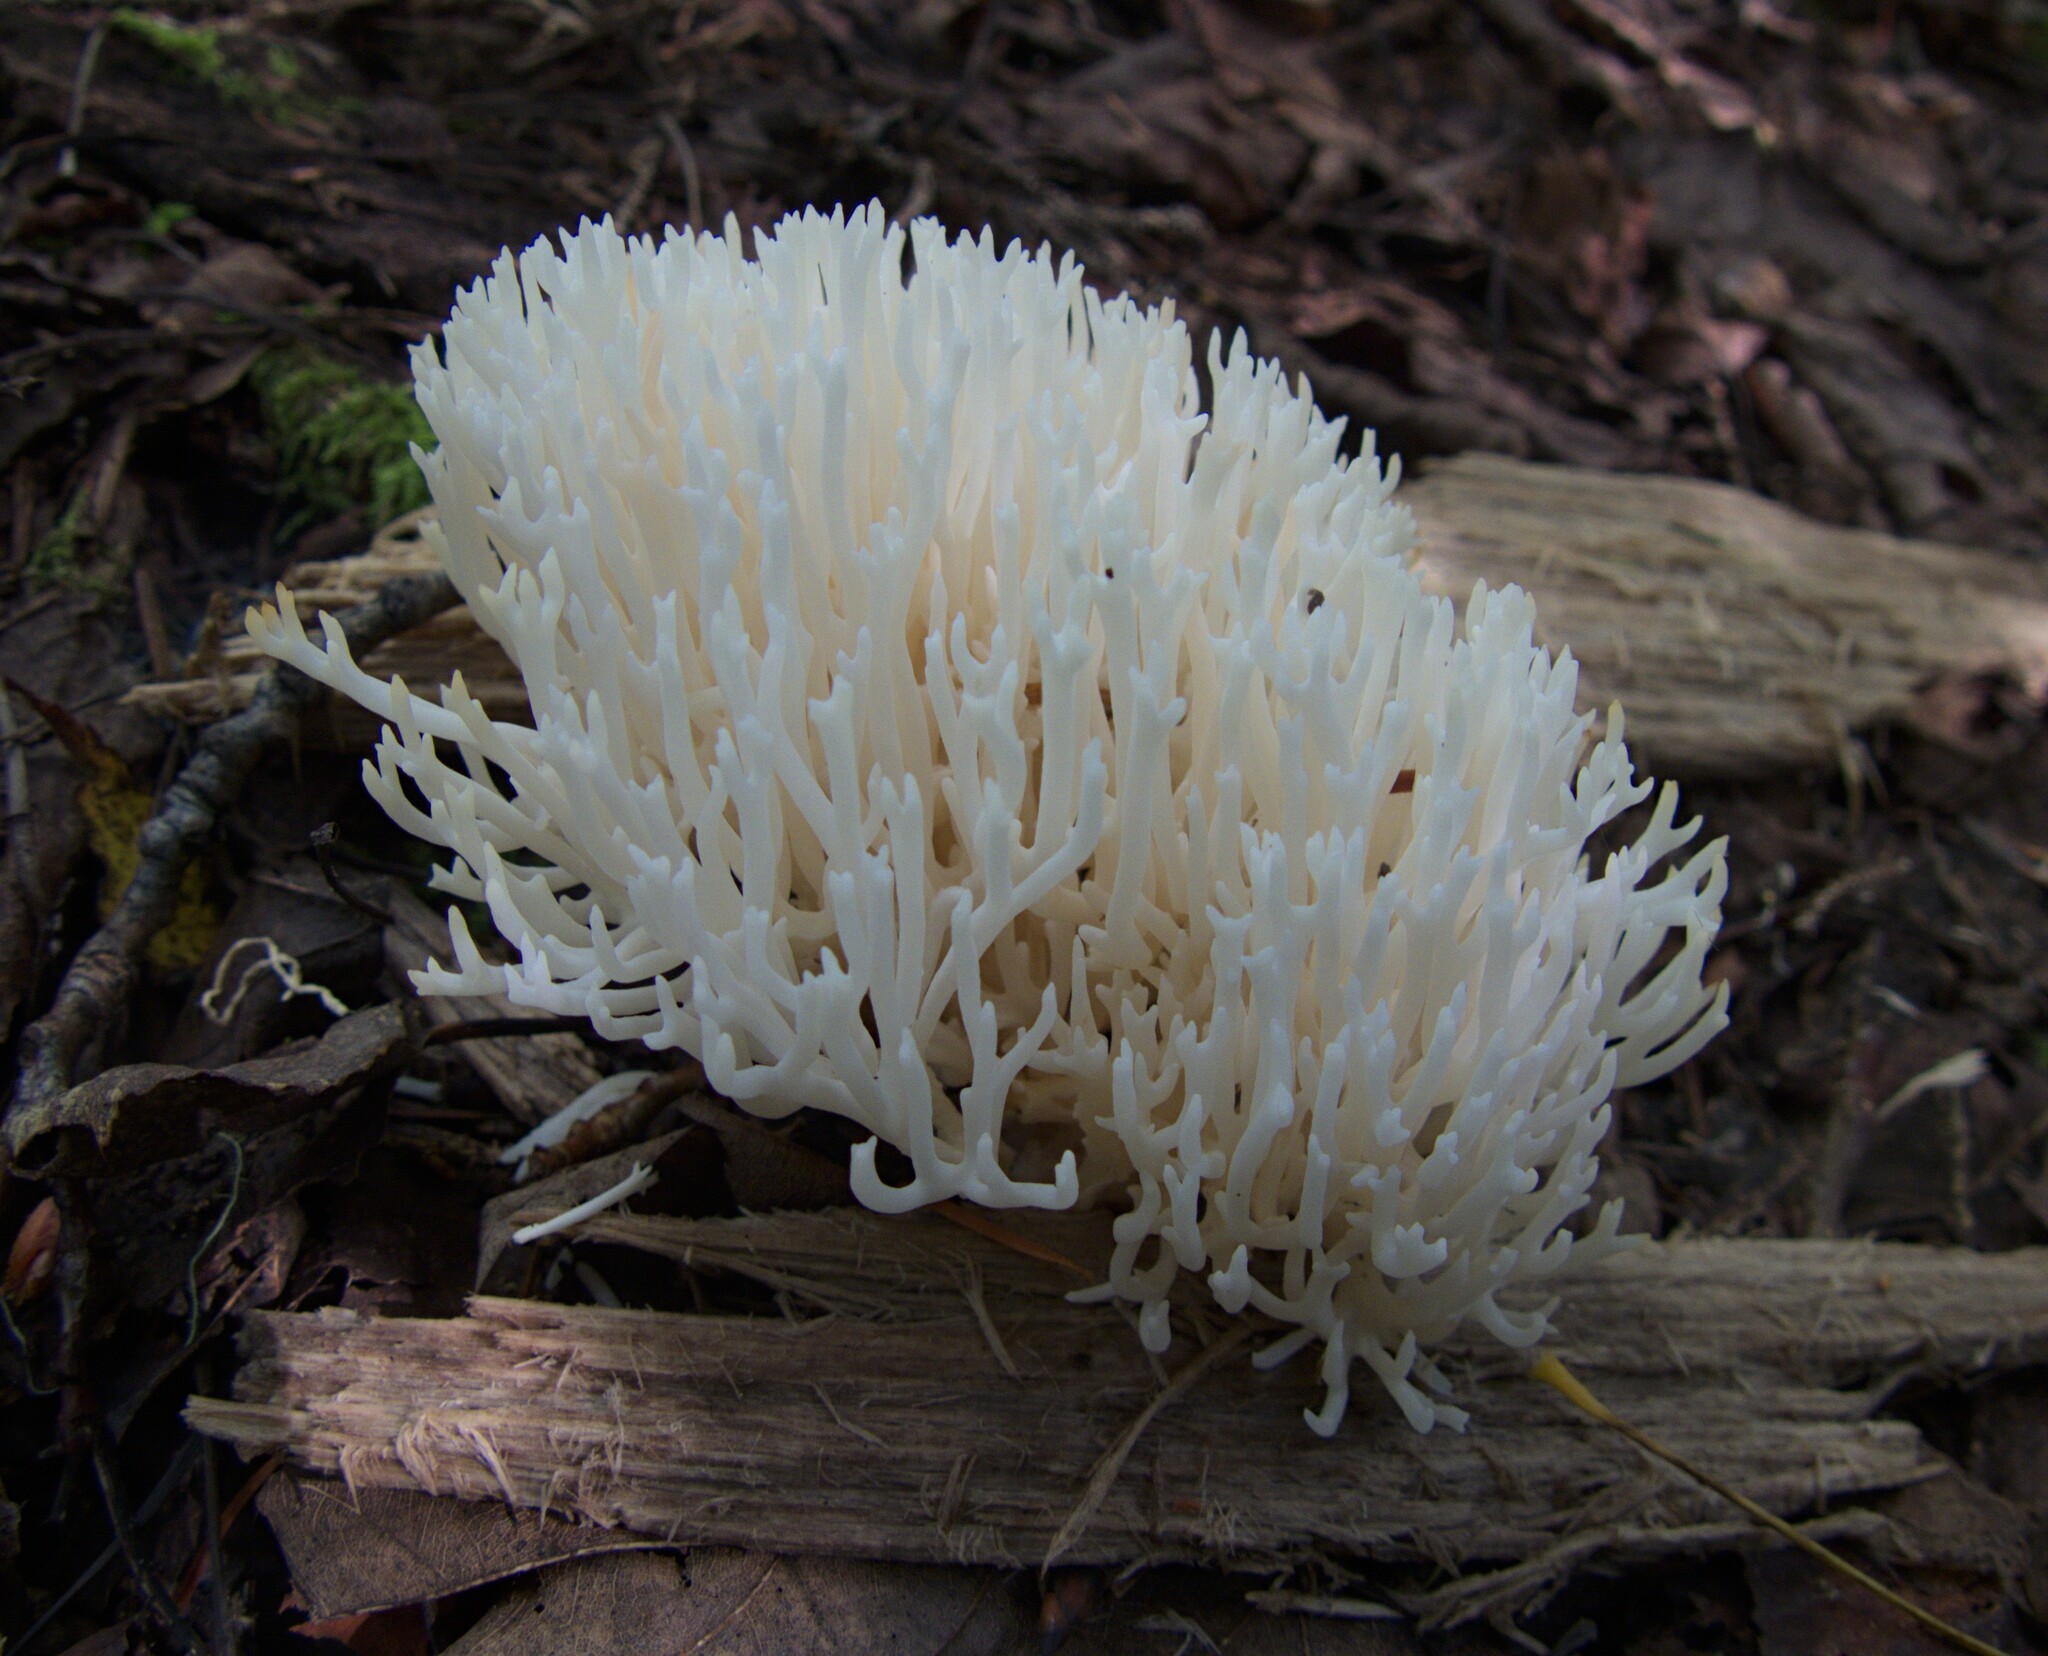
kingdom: Fungi
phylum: Basidiomycota
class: Agaricomycetes
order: Agaricales
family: Clavariaceae
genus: Ramariopsis
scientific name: Ramariopsis kunzei
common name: Ivory coral
